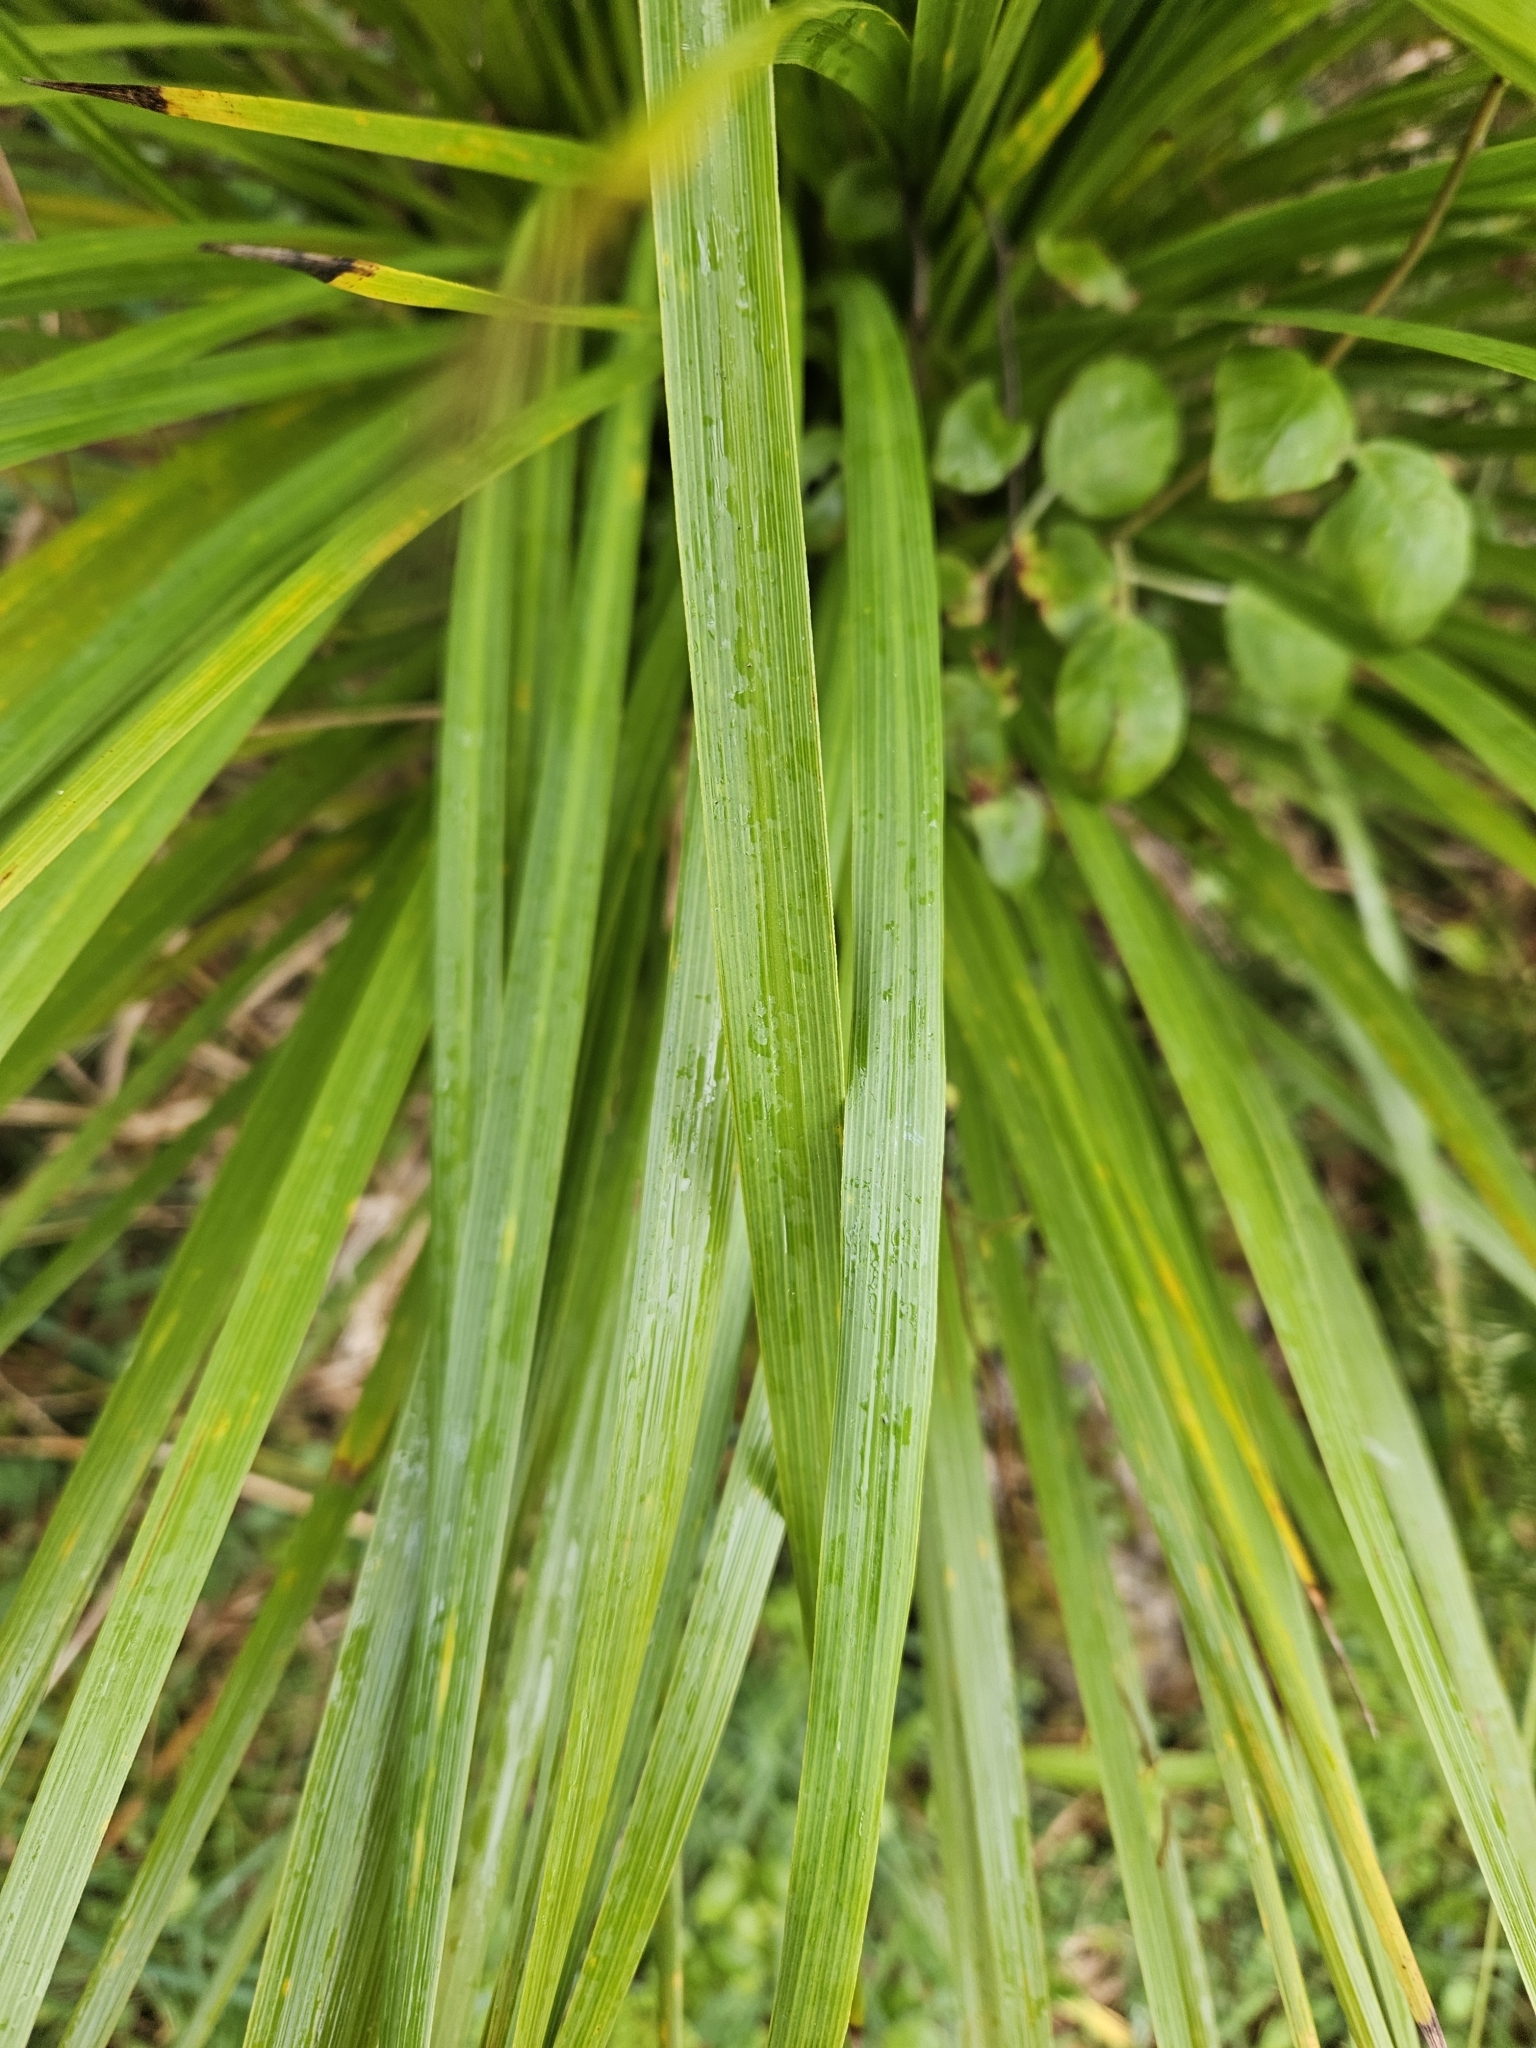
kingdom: Plantae
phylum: Tracheophyta
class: Liliopsida
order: Asparagales
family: Asparagaceae
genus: Cordyline
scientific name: Cordyline australis
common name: Cabbage-palm
